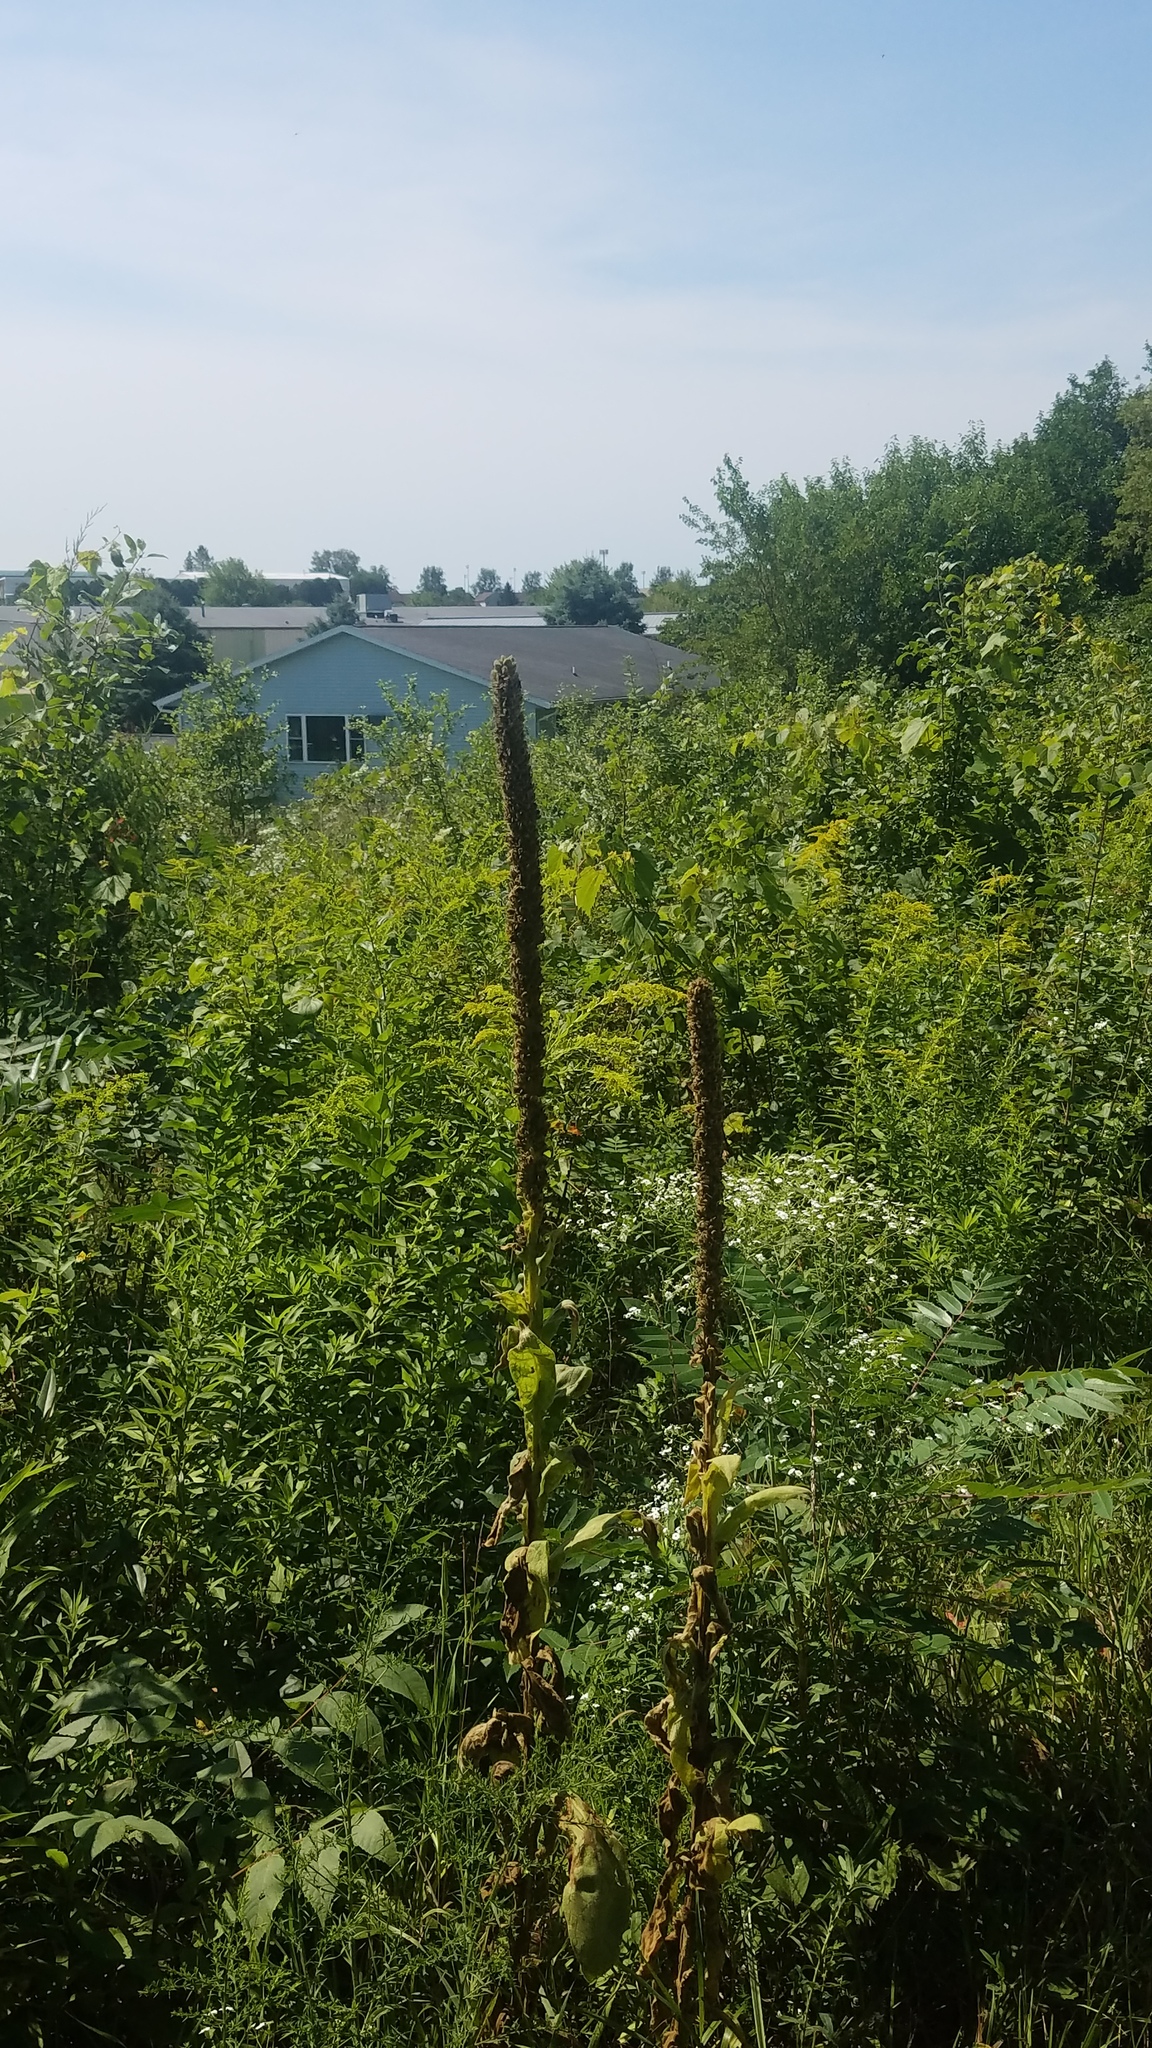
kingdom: Plantae
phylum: Tracheophyta
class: Magnoliopsida
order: Lamiales
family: Scrophulariaceae
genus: Verbascum
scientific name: Verbascum thapsus
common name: Common mullein
